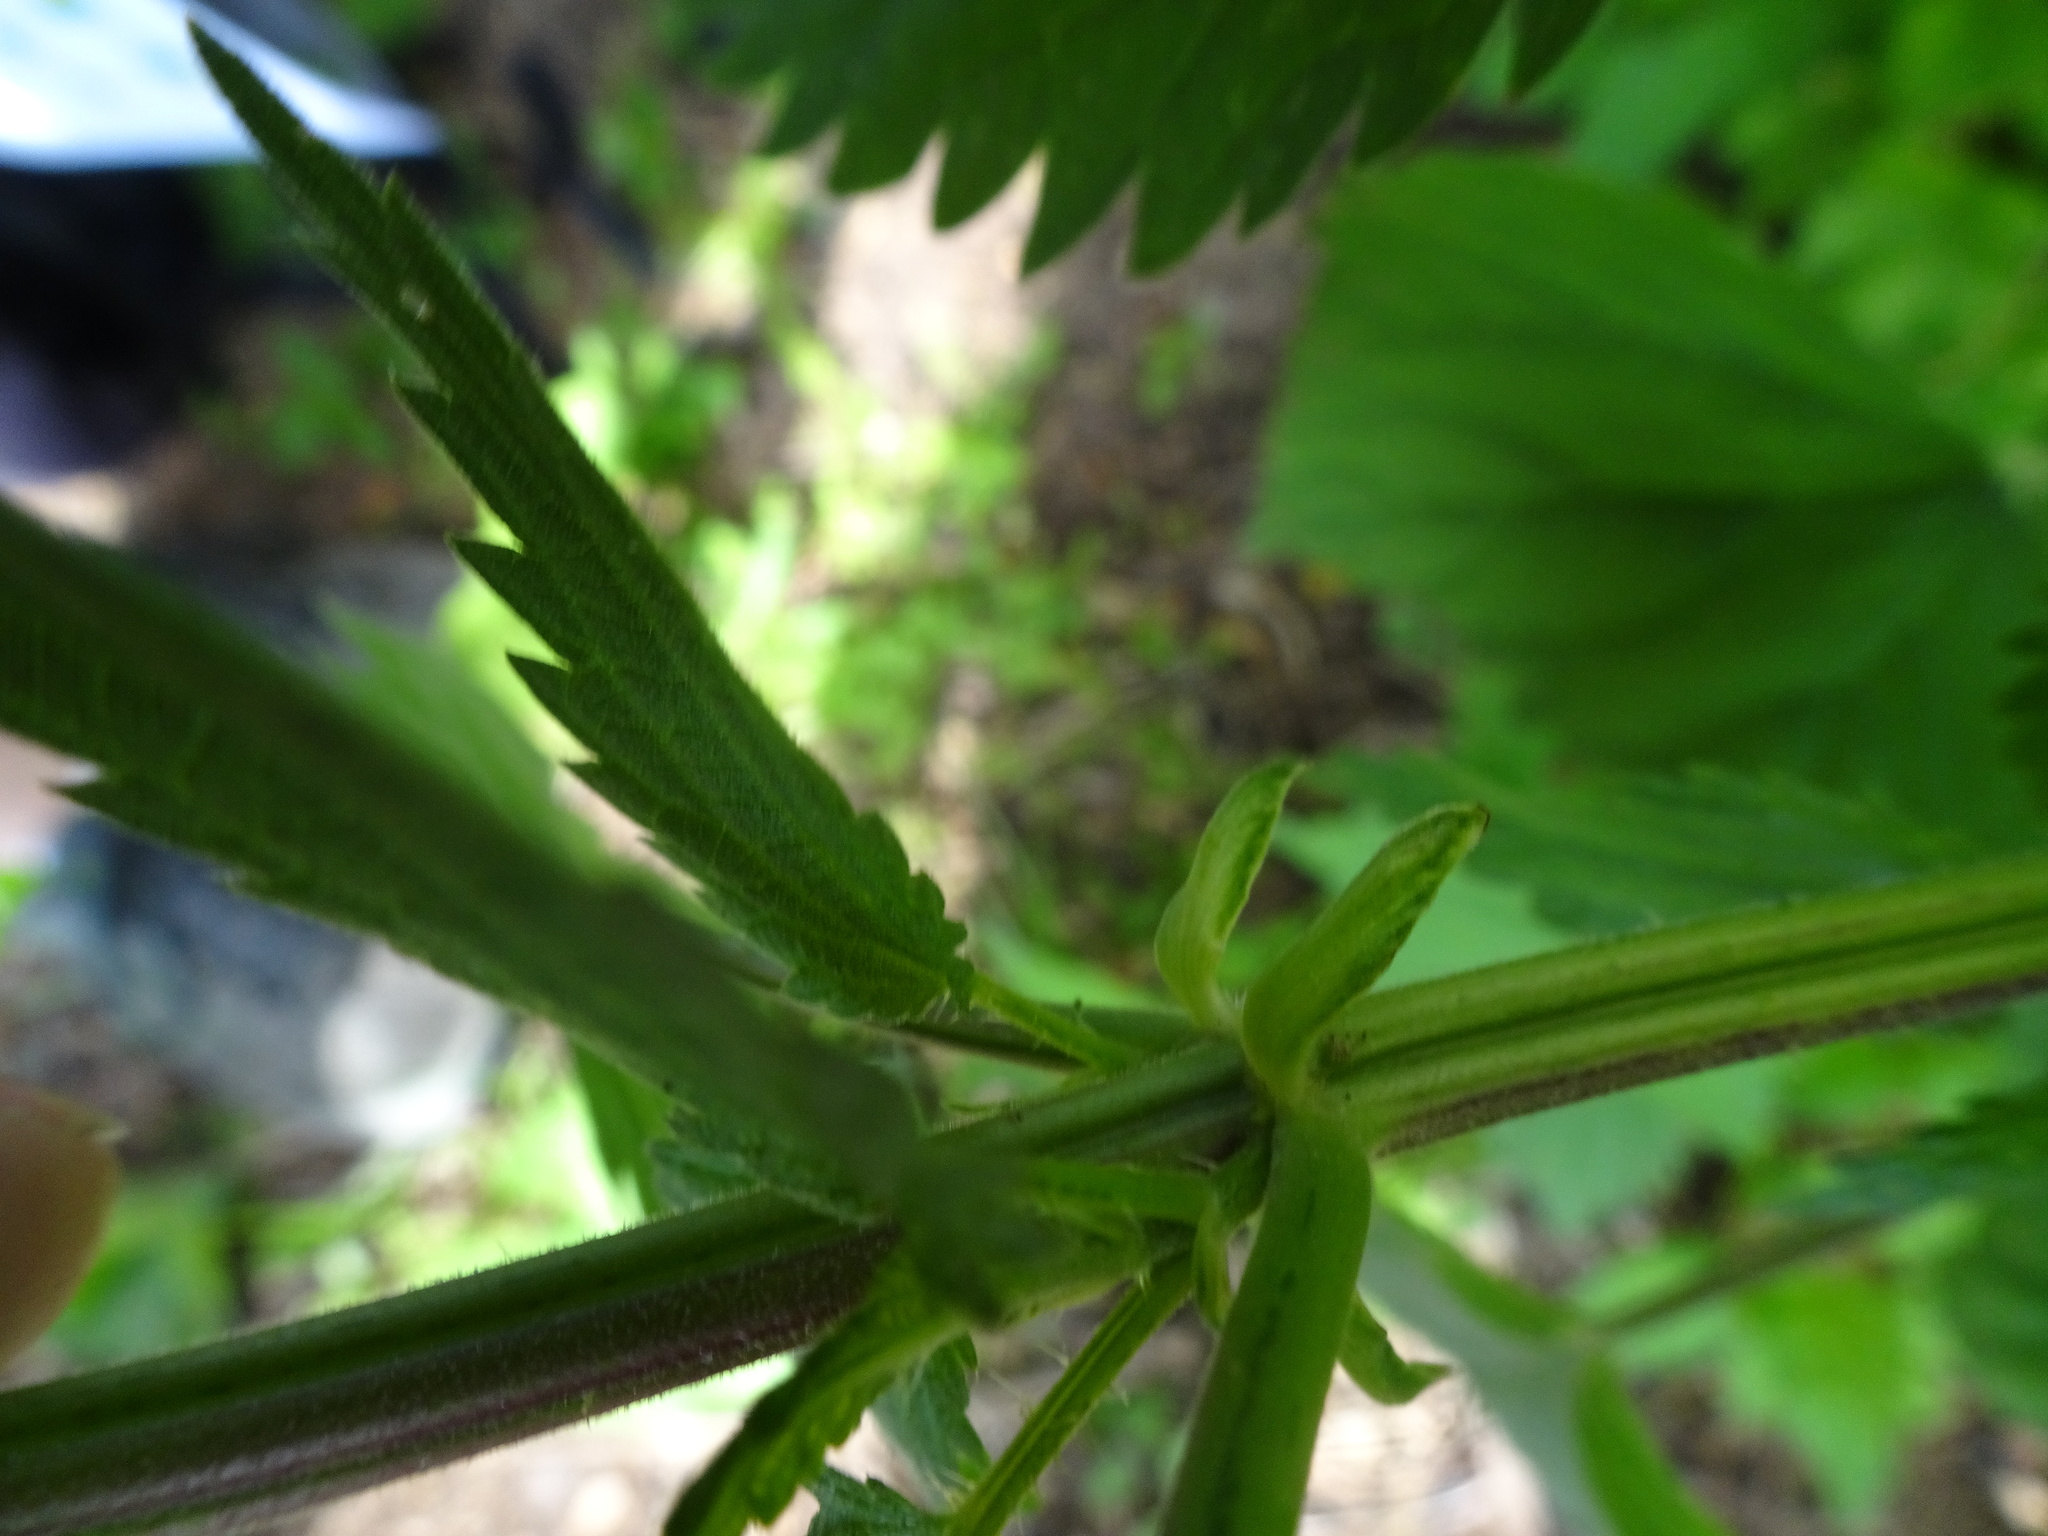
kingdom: Plantae
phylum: Tracheophyta
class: Magnoliopsida
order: Rosales
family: Urticaceae
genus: Urtica
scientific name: Urtica galeopsifolia
